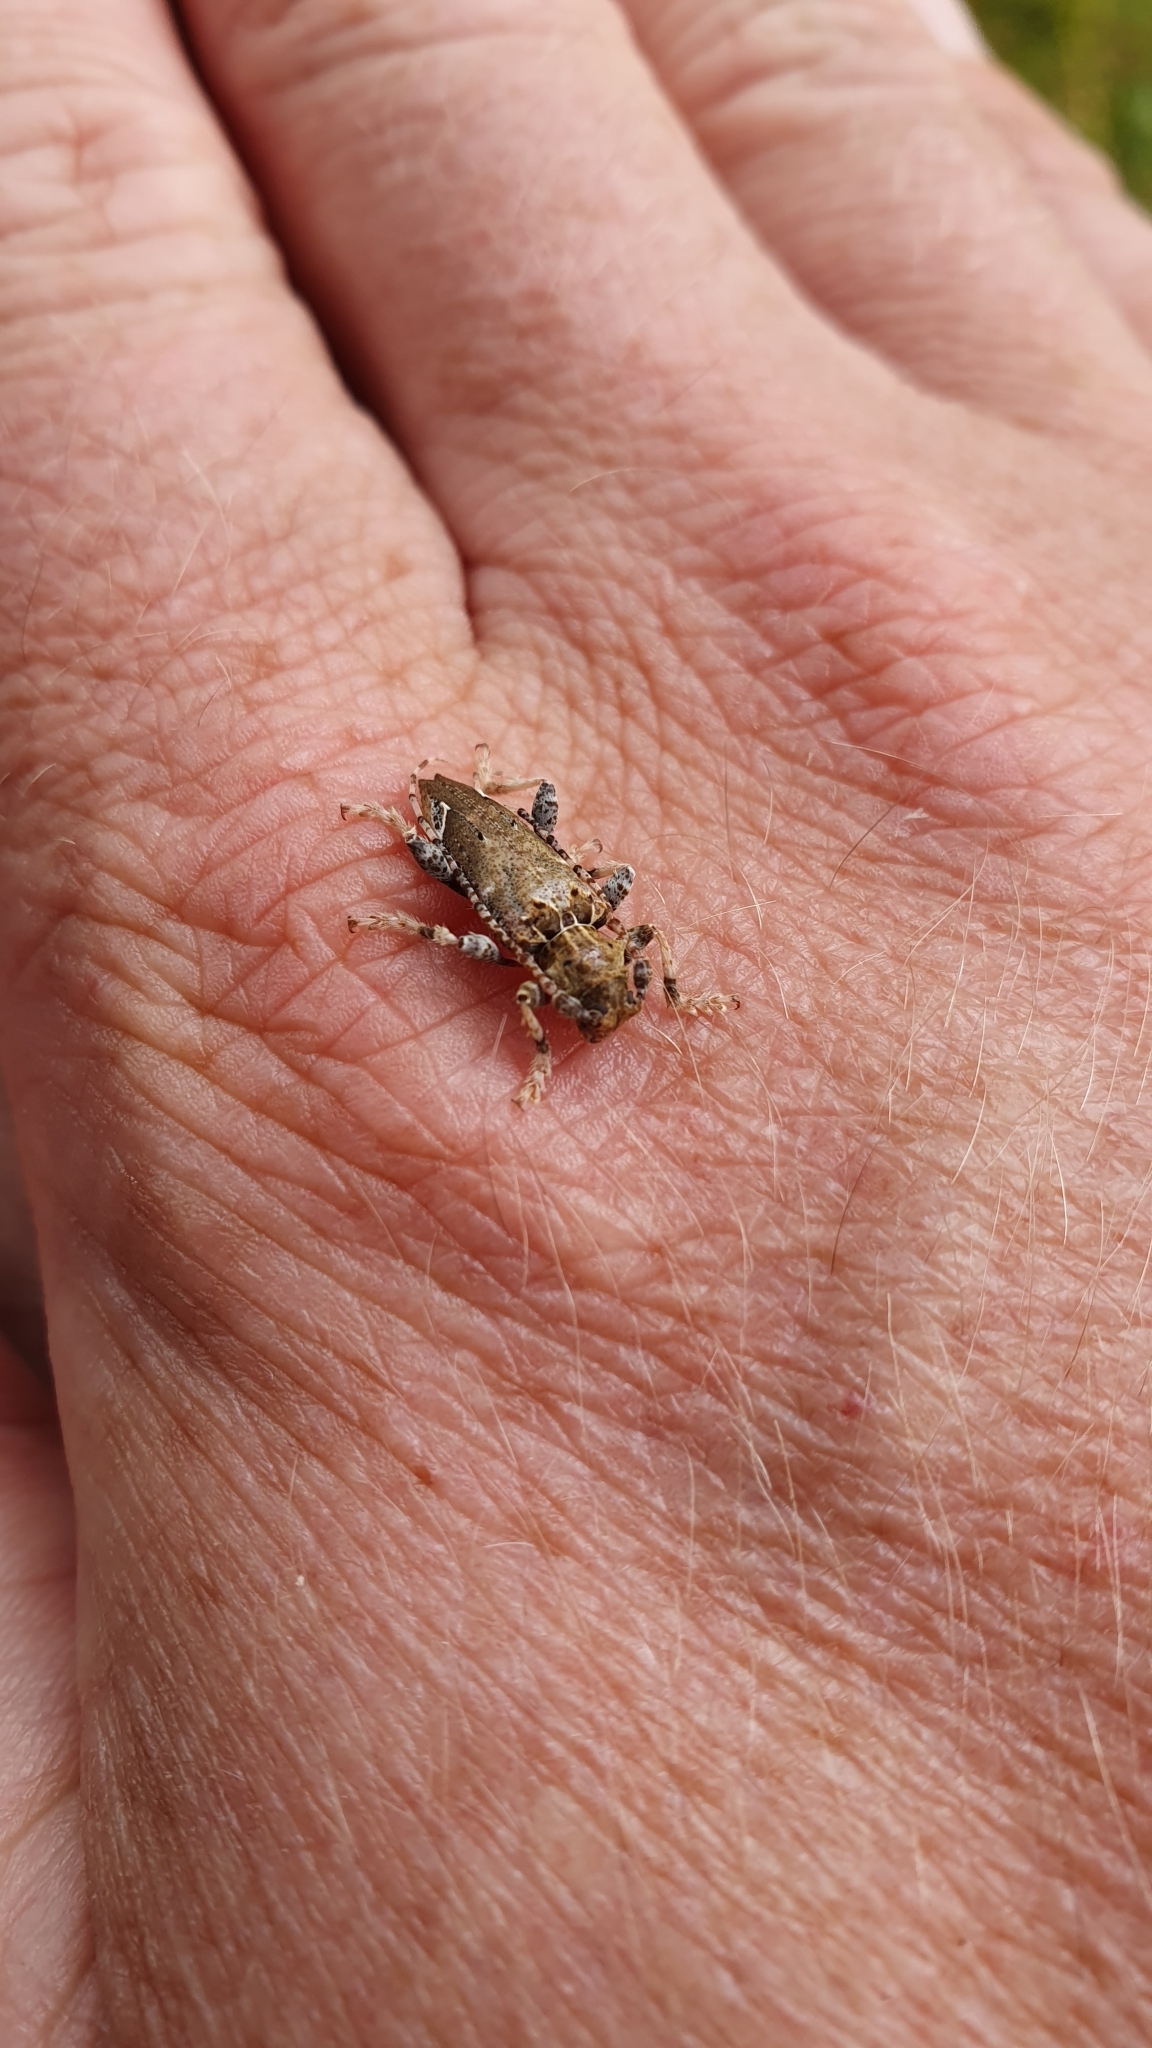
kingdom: Animalia
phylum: Arthropoda
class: Insecta
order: Coleoptera
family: Cerambycidae
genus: Tetrorea
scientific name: Tetrorea cilipes
